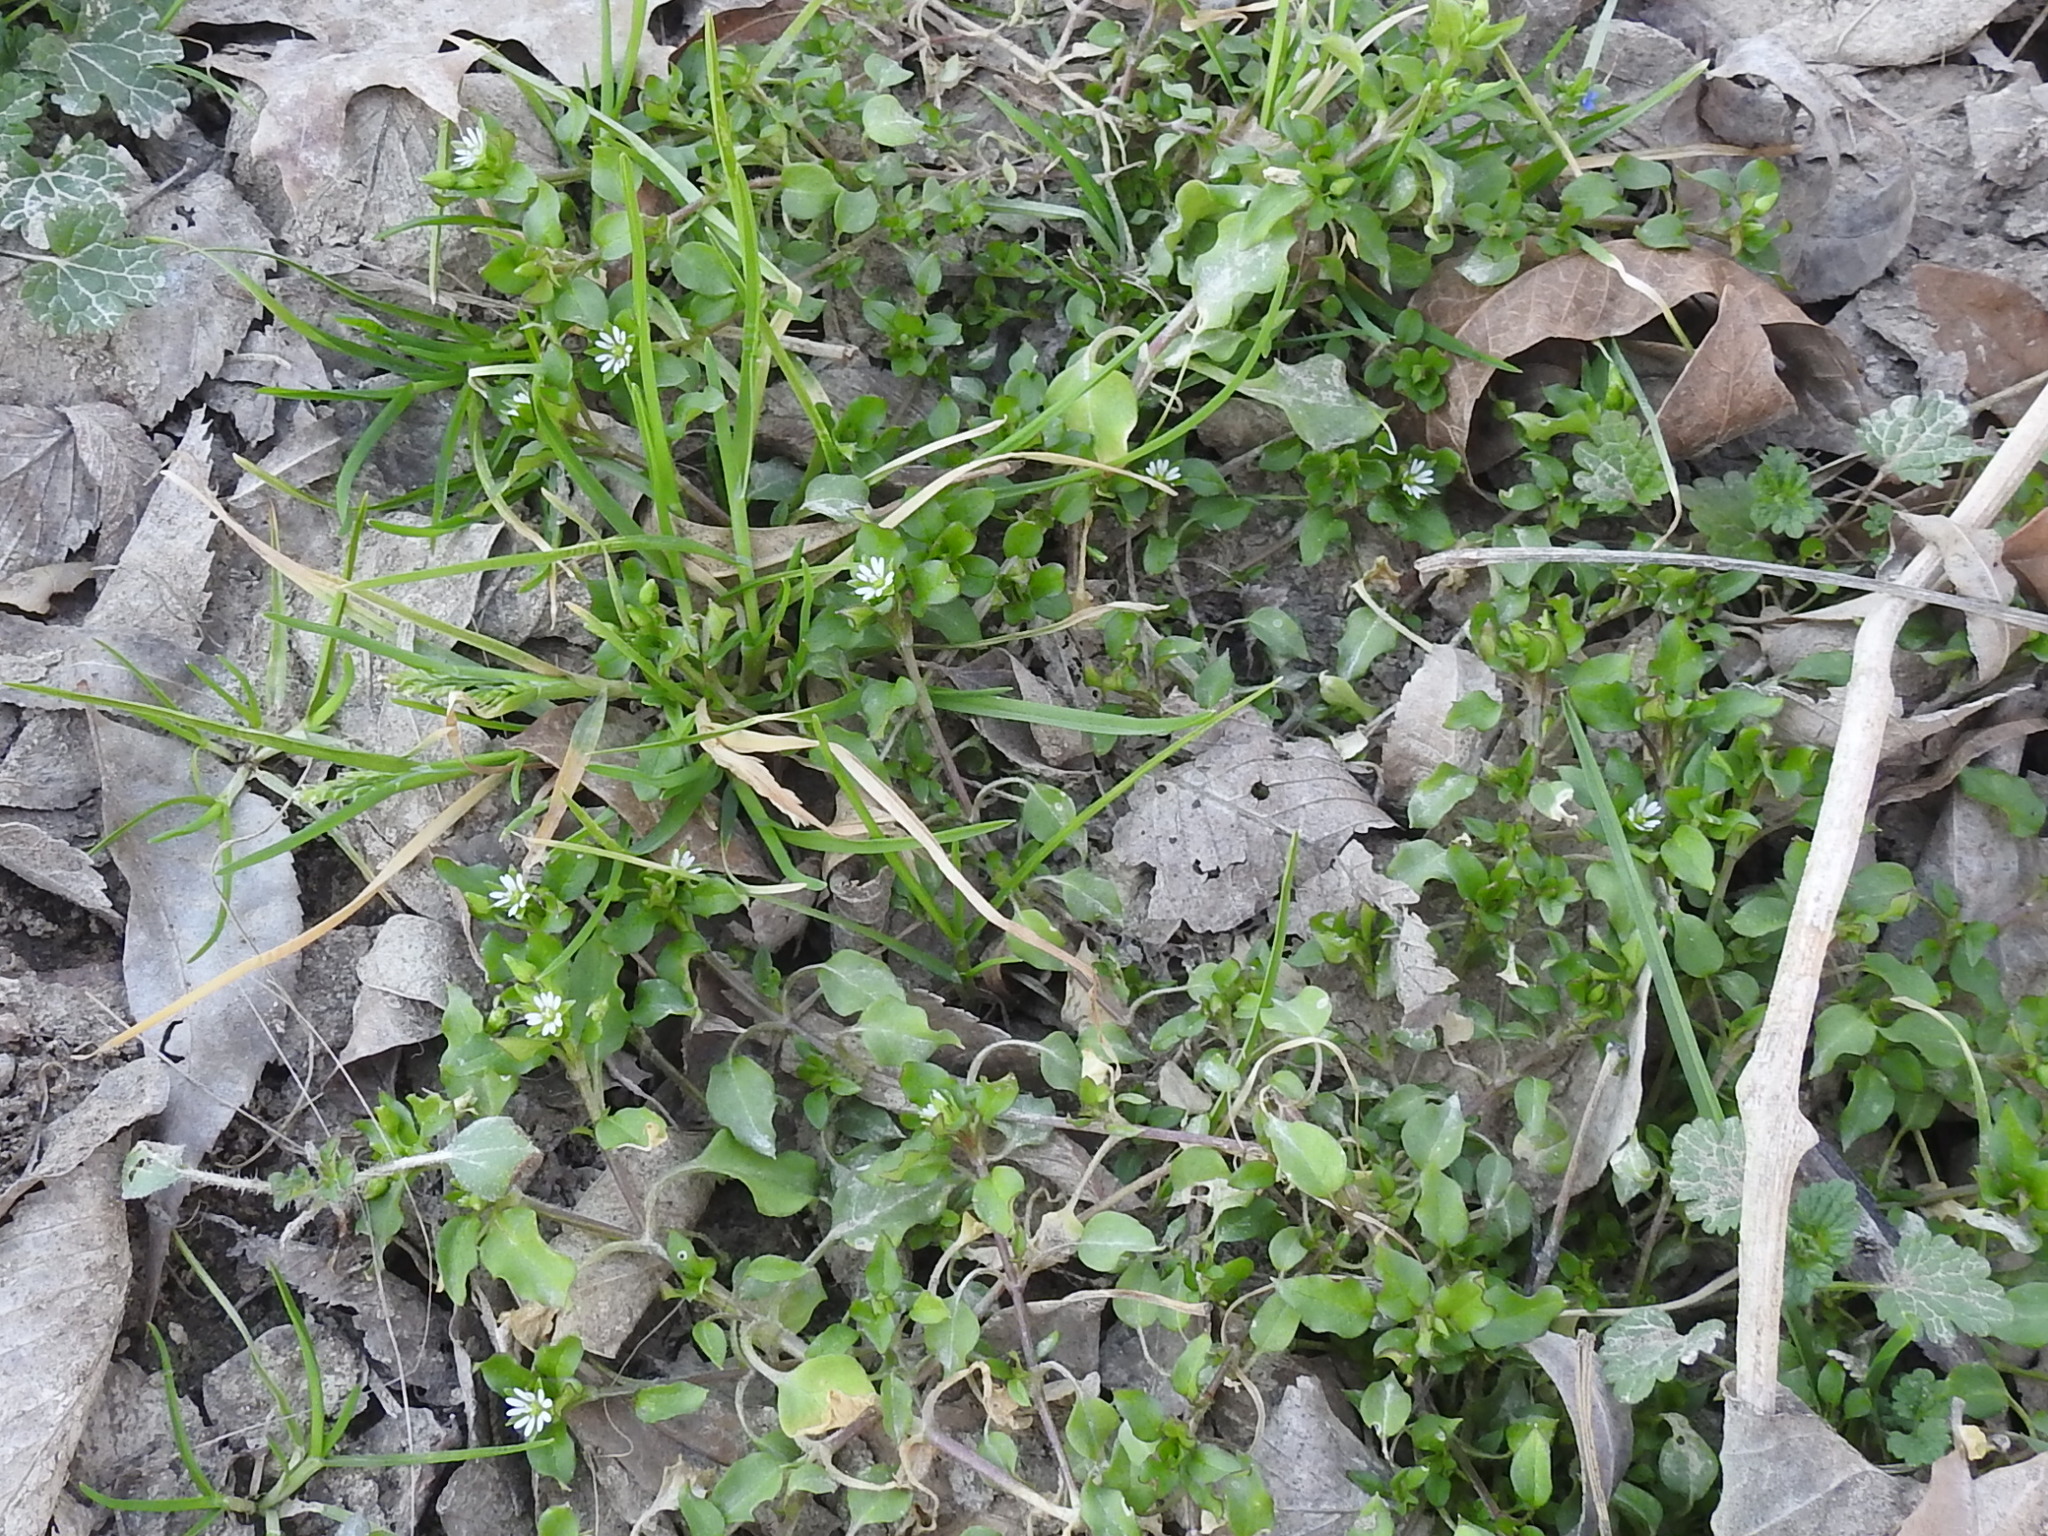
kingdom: Plantae
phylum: Tracheophyta
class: Magnoliopsida
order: Caryophyllales
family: Caryophyllaceae
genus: Stellaria
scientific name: Stellaria media
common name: Common chickweed
